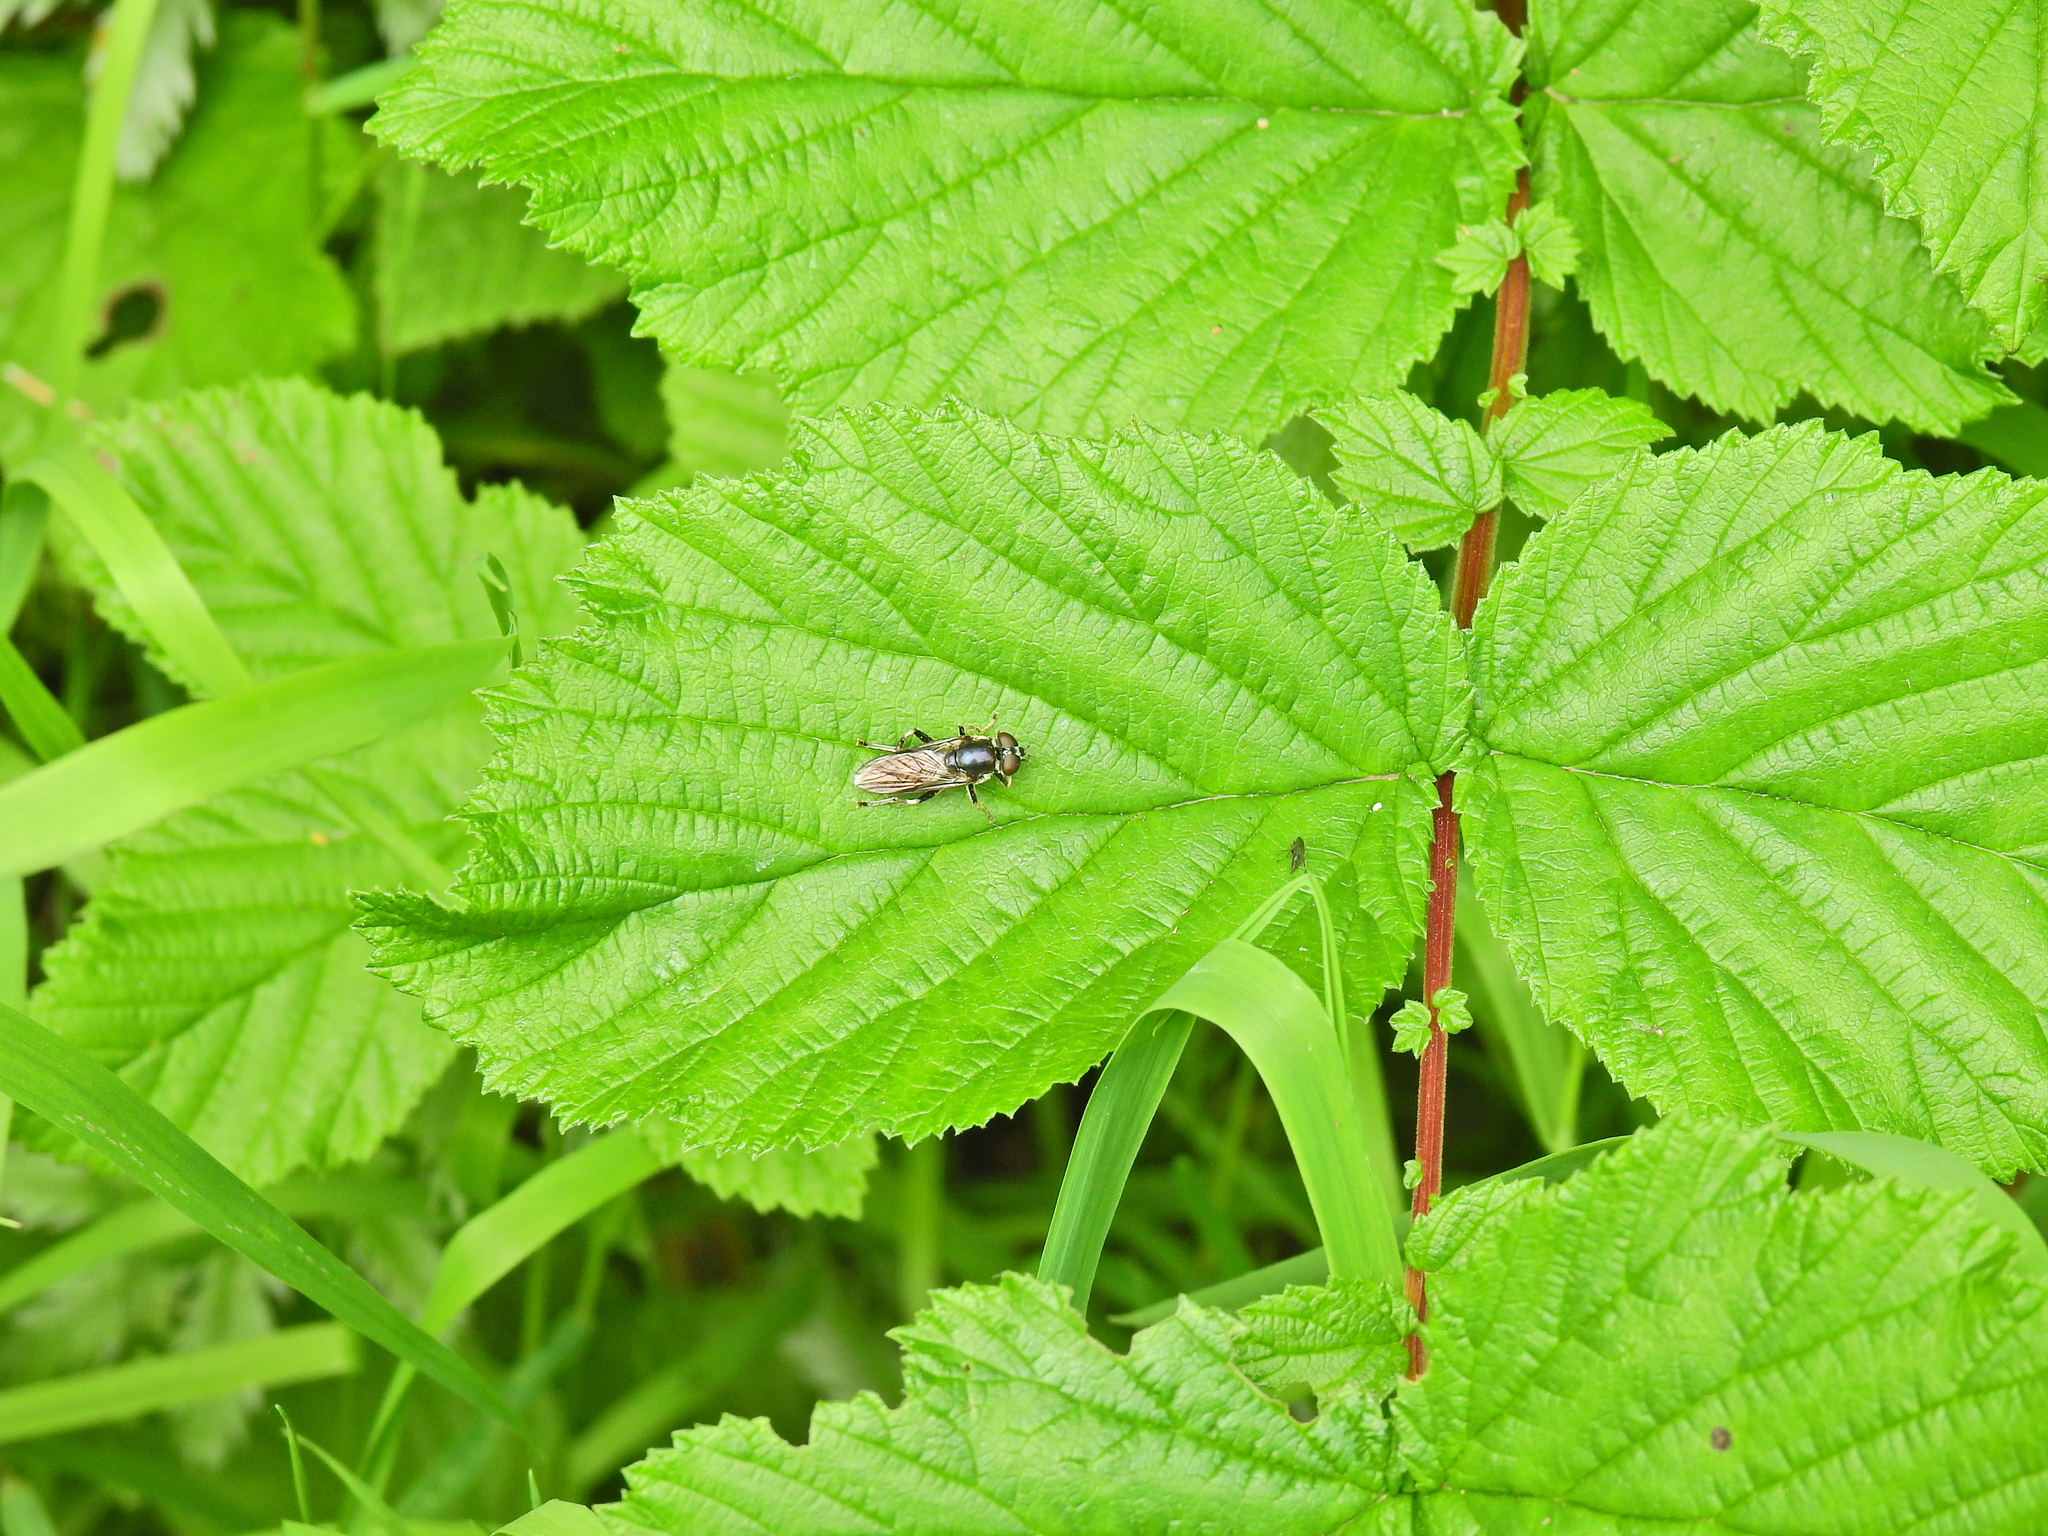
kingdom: Animalia
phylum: Arthropoda
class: Insecta
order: Diptera
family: Syrphidae
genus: Xylota
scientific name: Xylota
